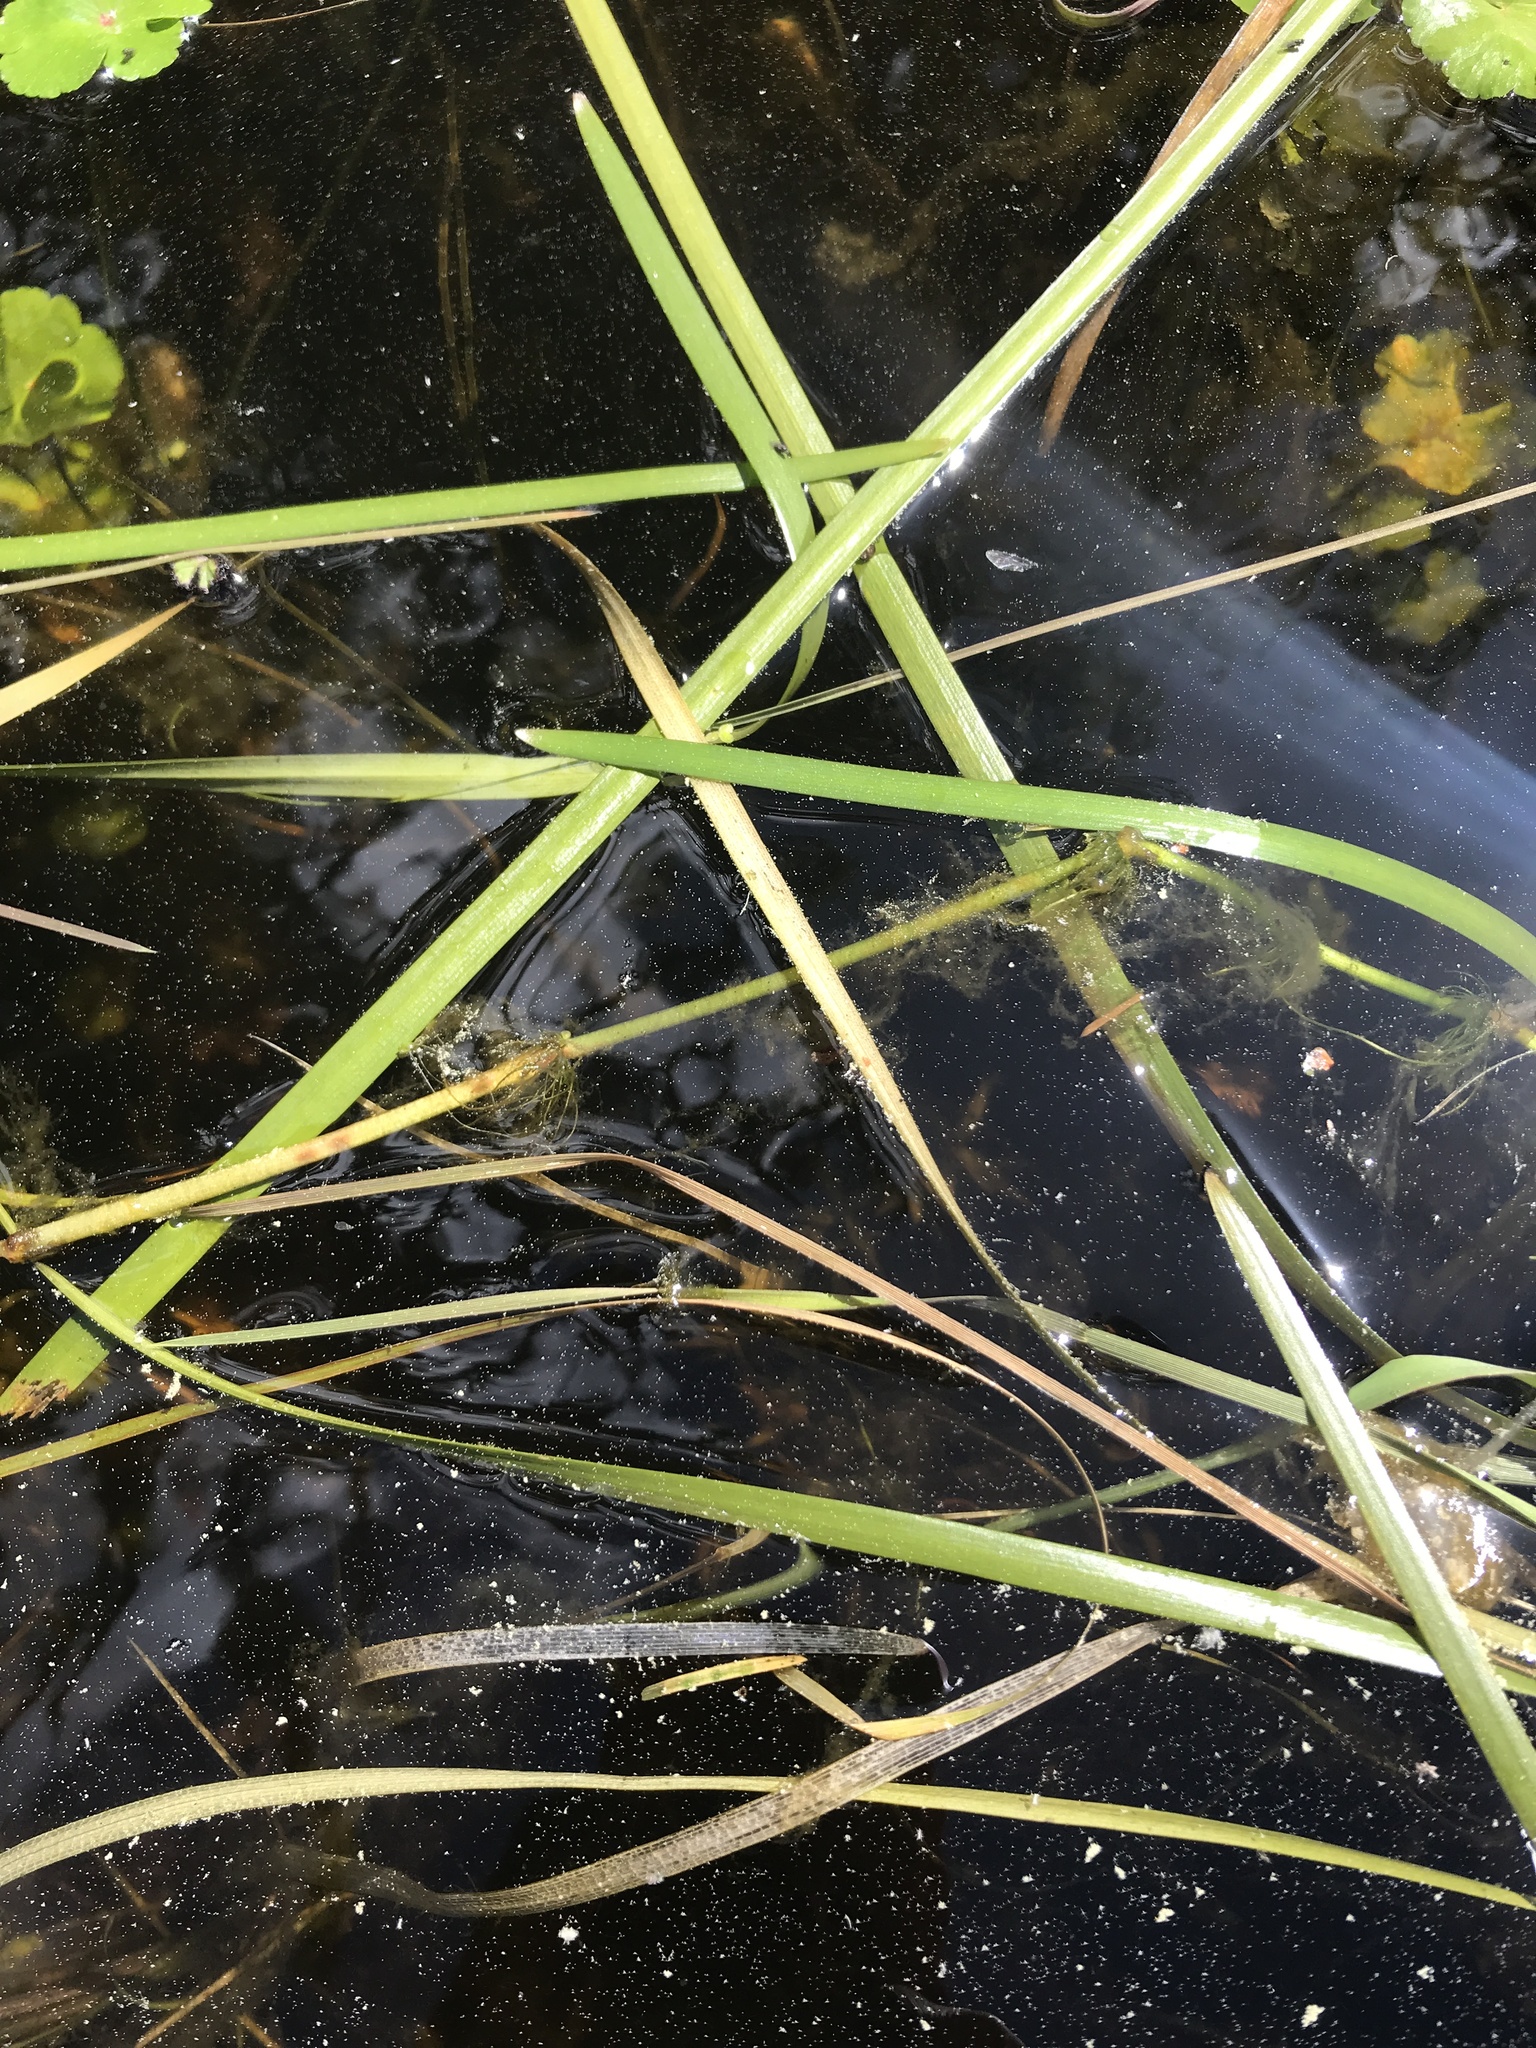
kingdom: Plantae
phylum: Tracheophyta
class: Liliopsida
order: Poales
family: Typhaceae
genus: Sparganium
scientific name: Sparganium emersum
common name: Unbranched bur-reed
